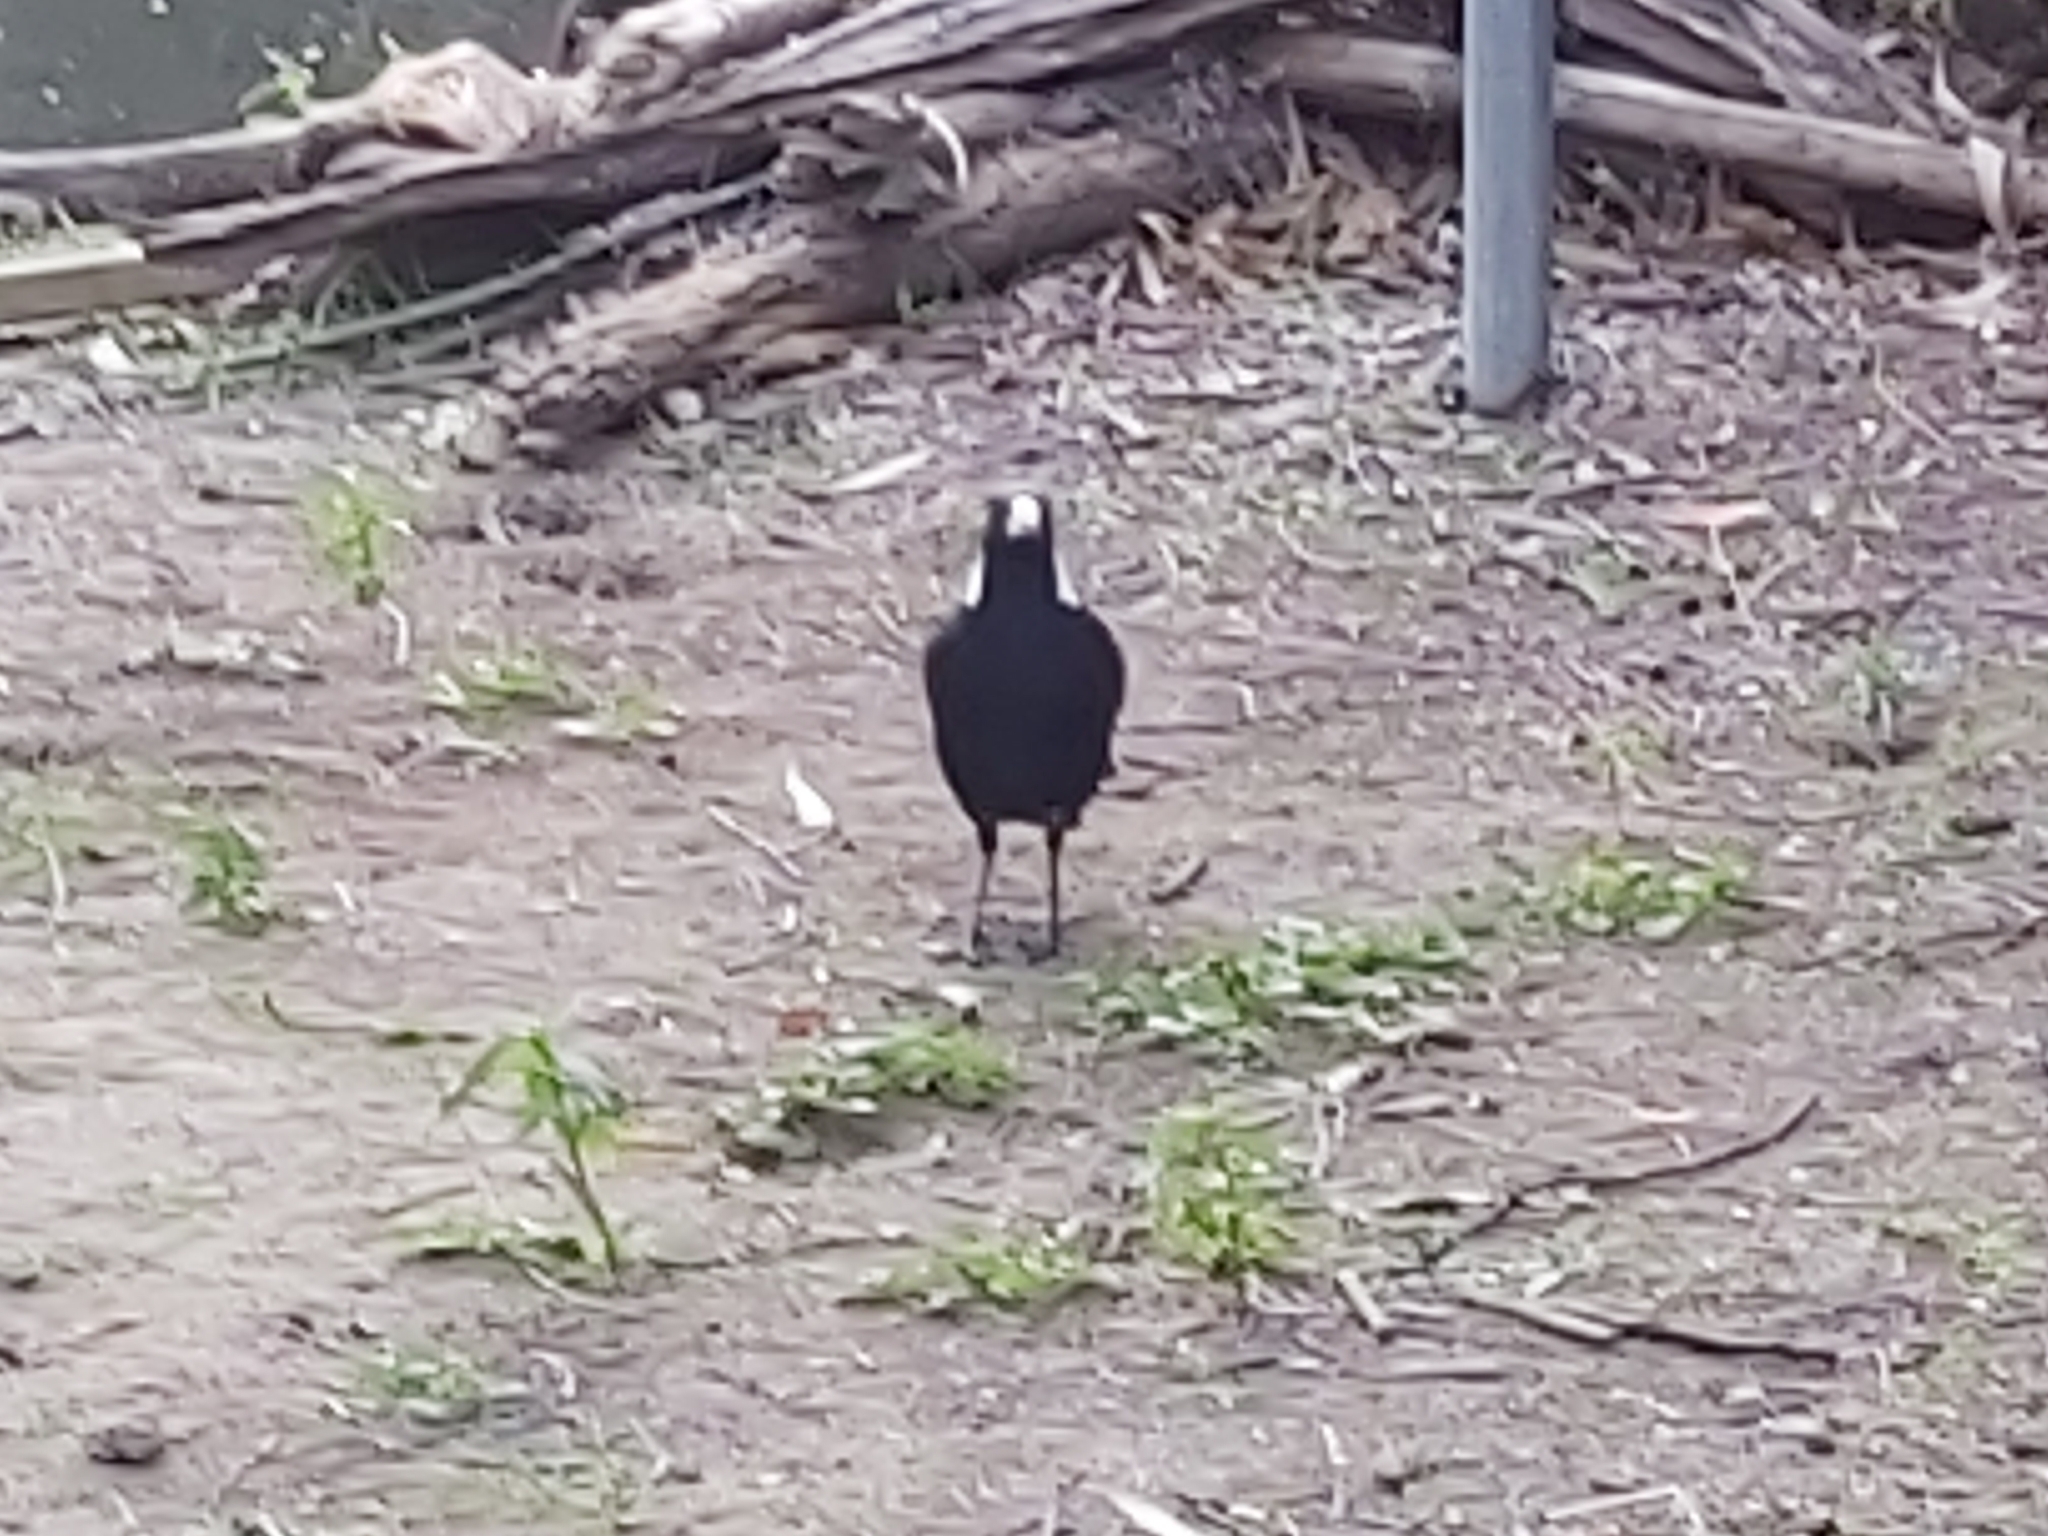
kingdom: Animalia
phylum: Chordata
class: Aves
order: Passeriformes
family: Cracticidae
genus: Gymnorhina
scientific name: Gymnorhina tibicen
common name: Australian magpie
